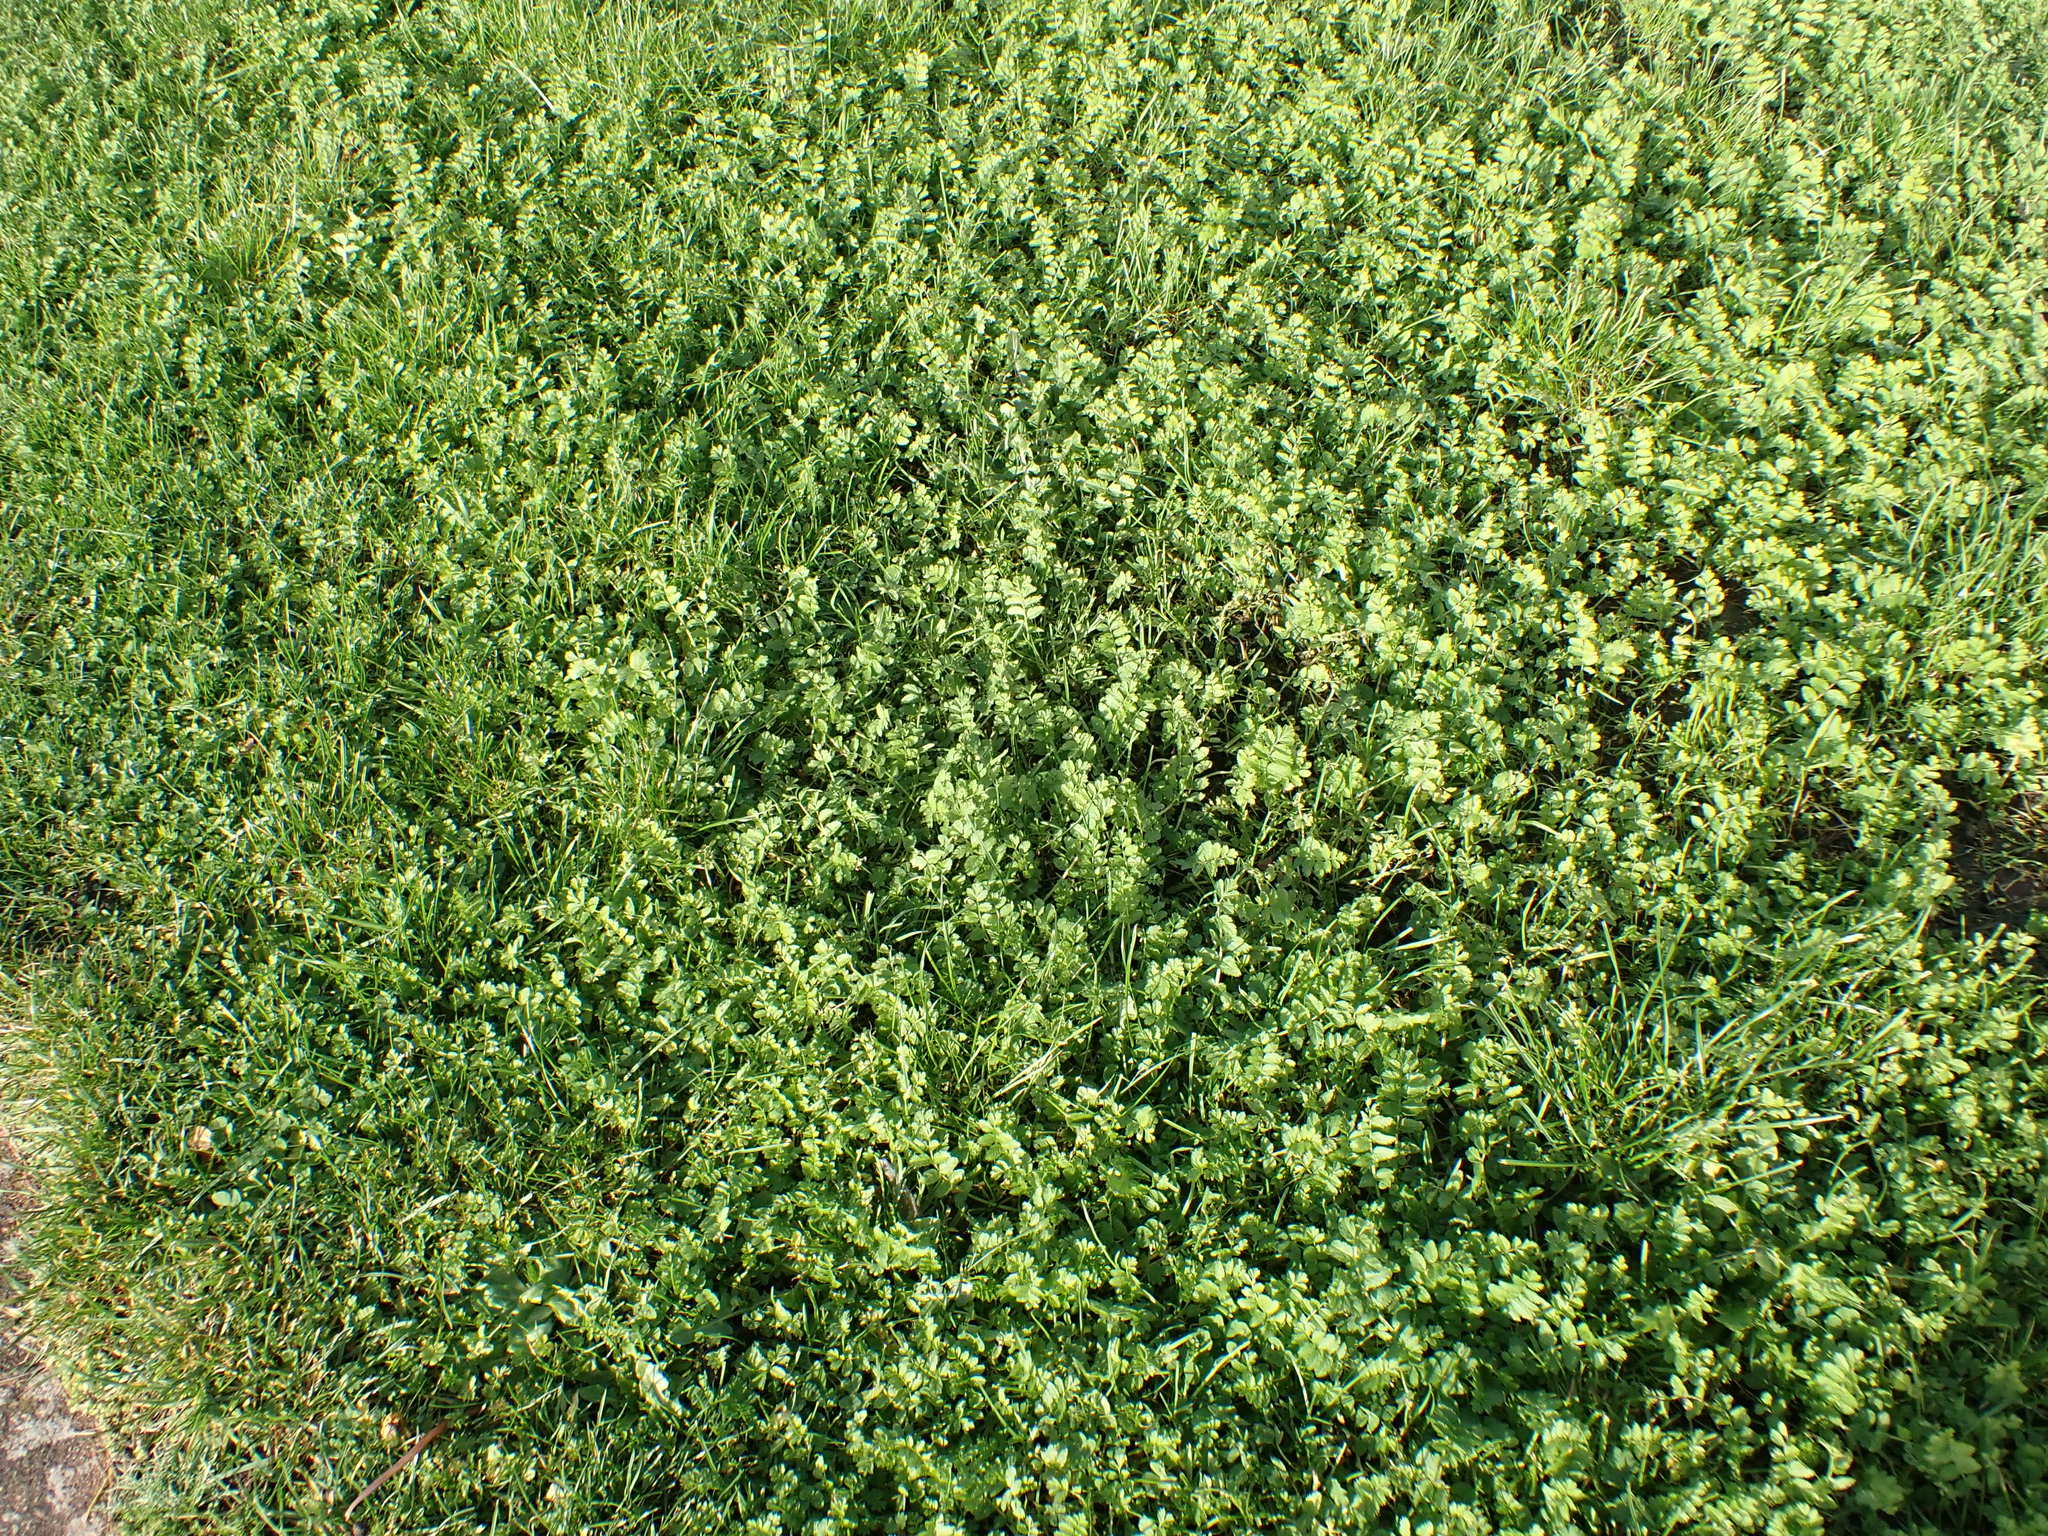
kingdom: Plantae
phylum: Tracheophyta
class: Magnoliopsida
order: Geraniales
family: Geraniaceae
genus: Erodium
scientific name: Erodium moschatum
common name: Musk stork's-bill
